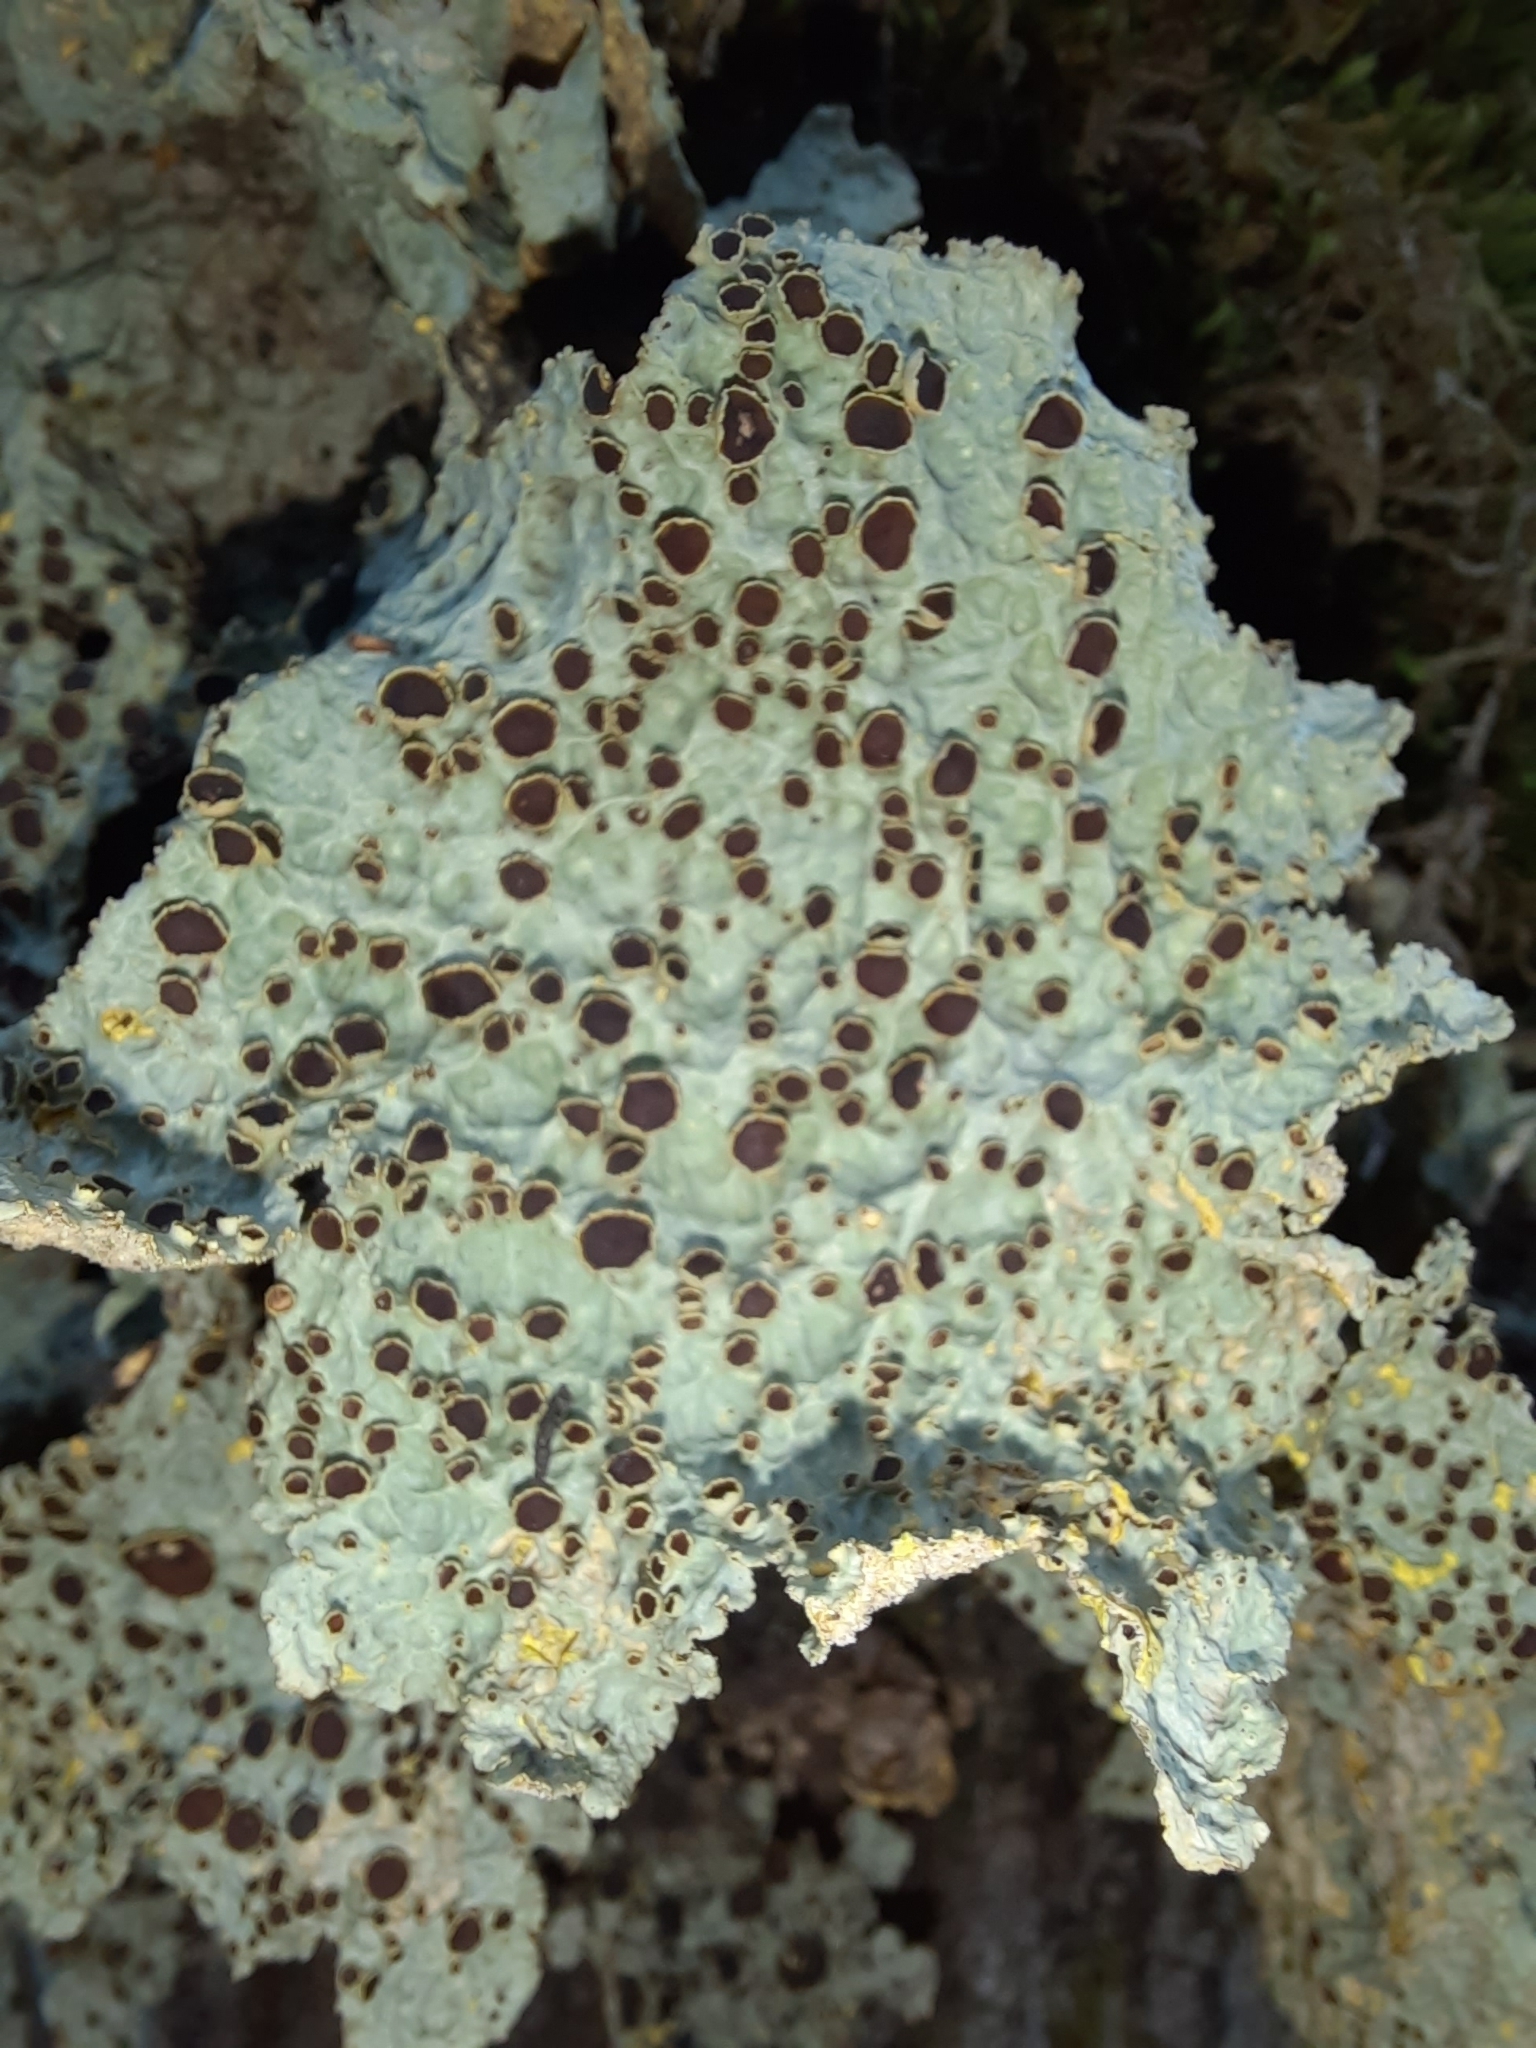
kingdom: Fungi
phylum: Ascomycota
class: Lecanoromycetes
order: Peltigerales
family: Lobariaceae
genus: Yarrumia
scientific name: Yarrumia coronata
